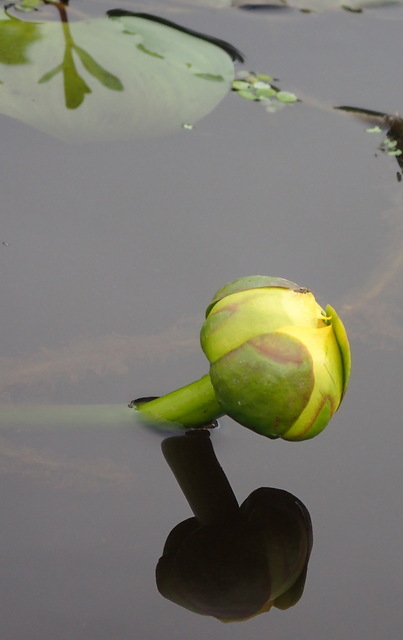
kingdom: Plantae
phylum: Tracheophyta
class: Magnoliopsida
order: Nymphaeales
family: Nymphaeaceae
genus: Nuphar
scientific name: Nuphar advena
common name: Spatter-dock
